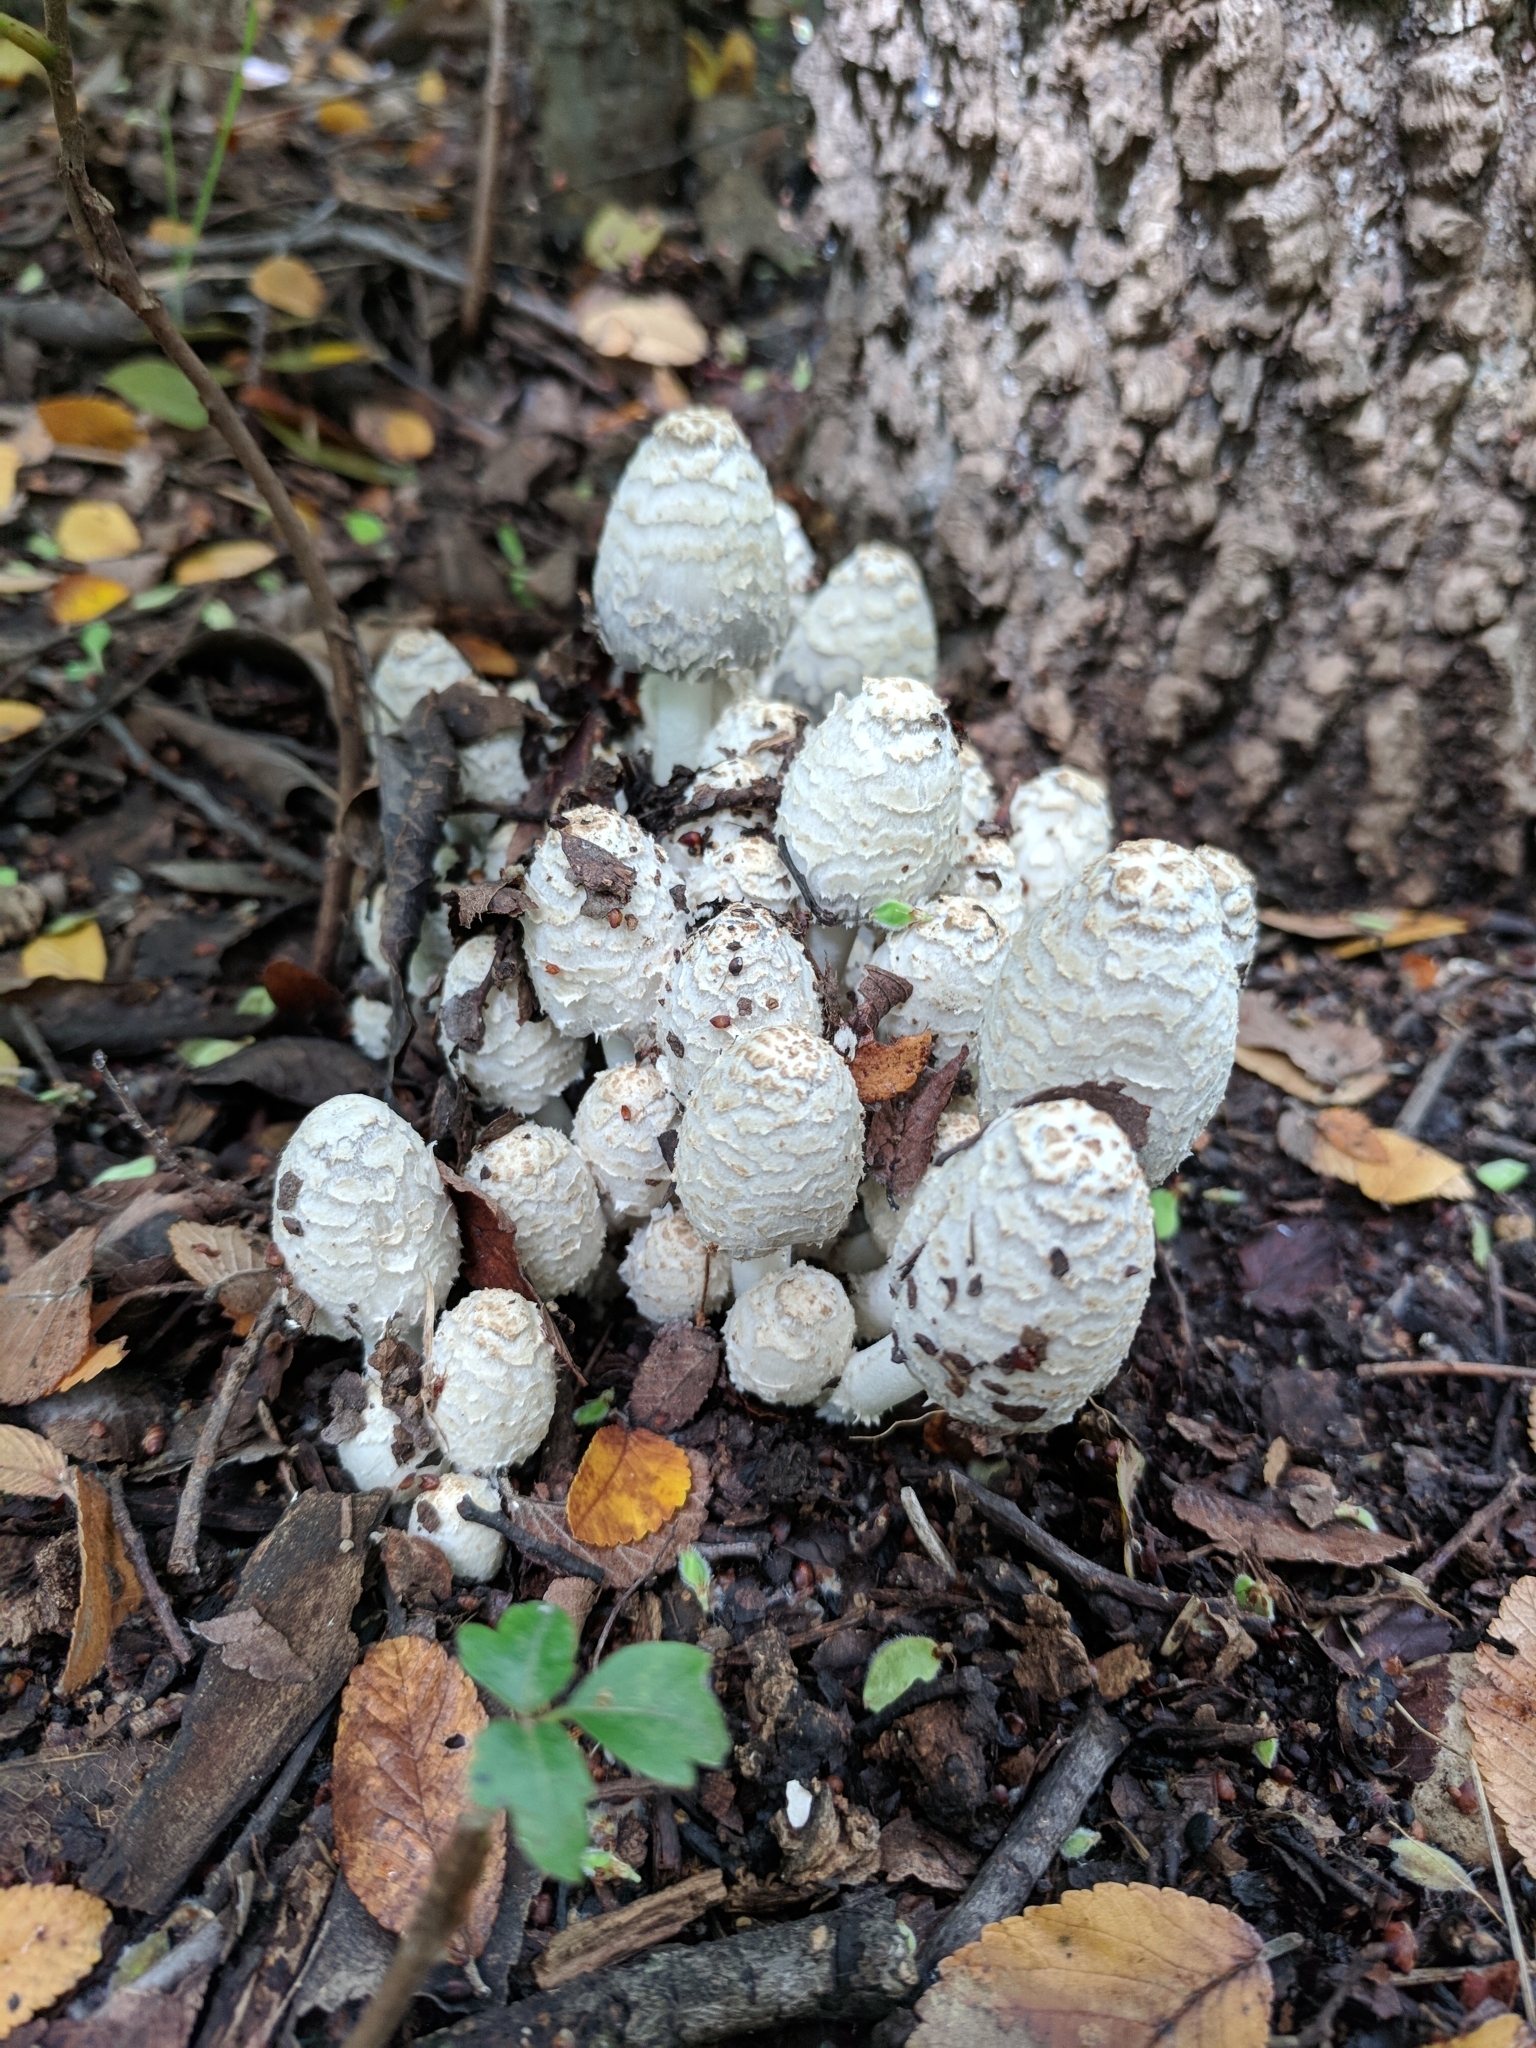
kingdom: Fungi
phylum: Basidiomycota
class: Agaricomycetes
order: Agaricales
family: Psathyrellaceae
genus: Coprinopsis
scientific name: Coprinopsis variegata
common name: Scaly ink cap
